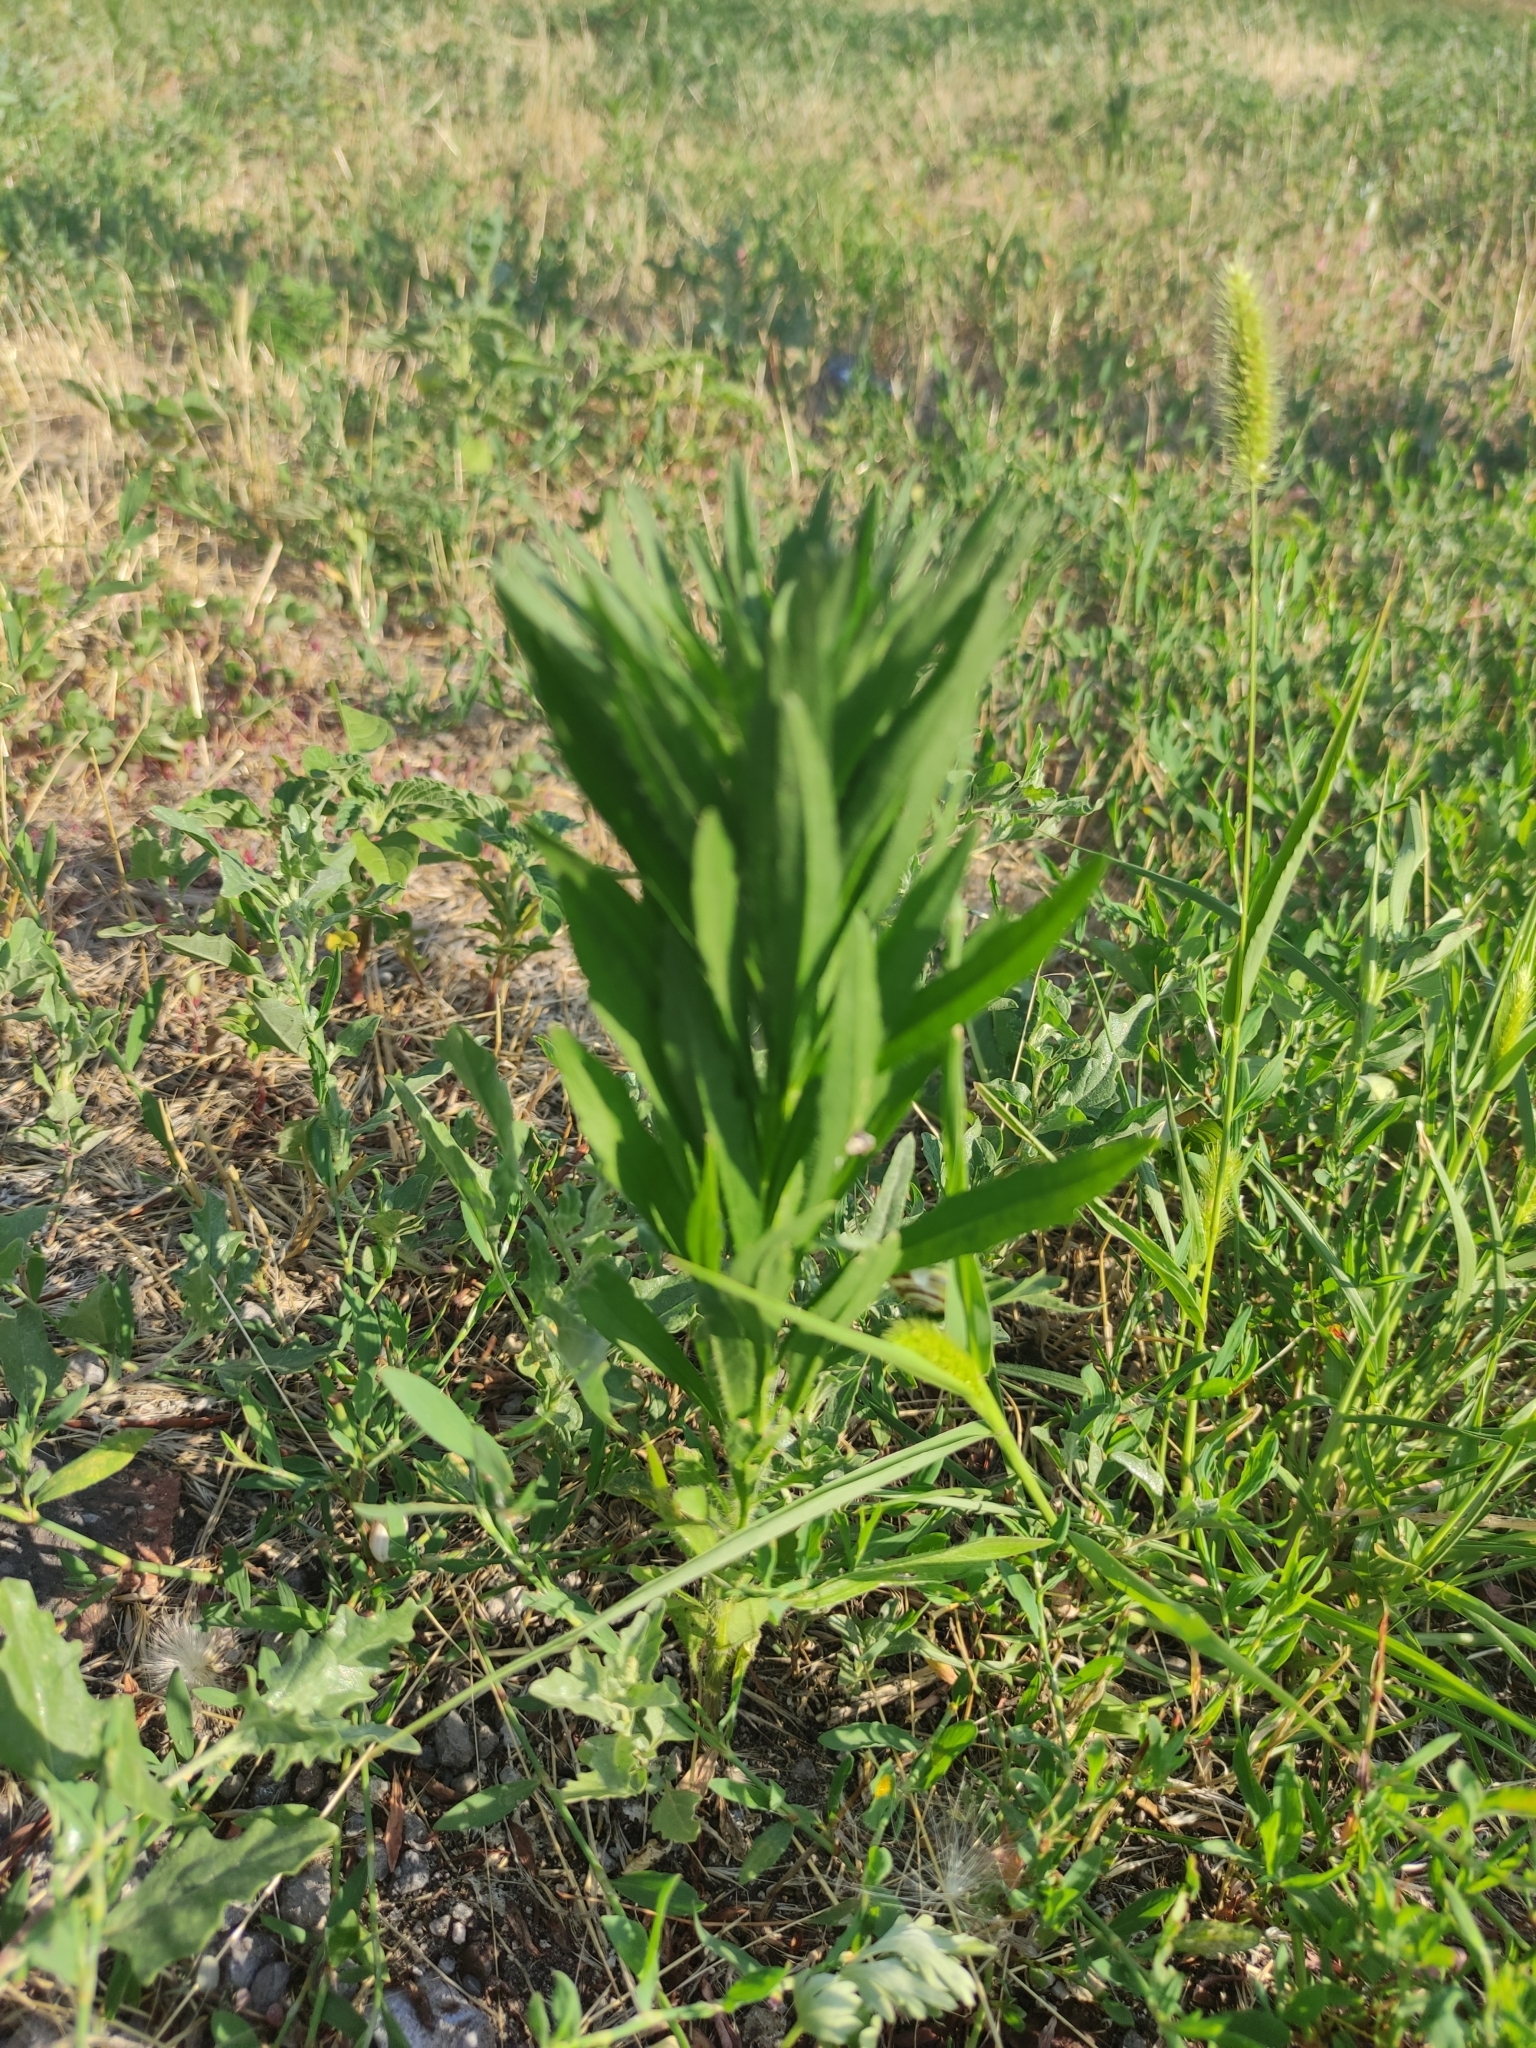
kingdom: Plantae
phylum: Tracheophyta
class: Magnoliopsida
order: Asterales
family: Asteraceae
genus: Erigeron
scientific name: Erigeron canadensis
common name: Canadian fleabane
